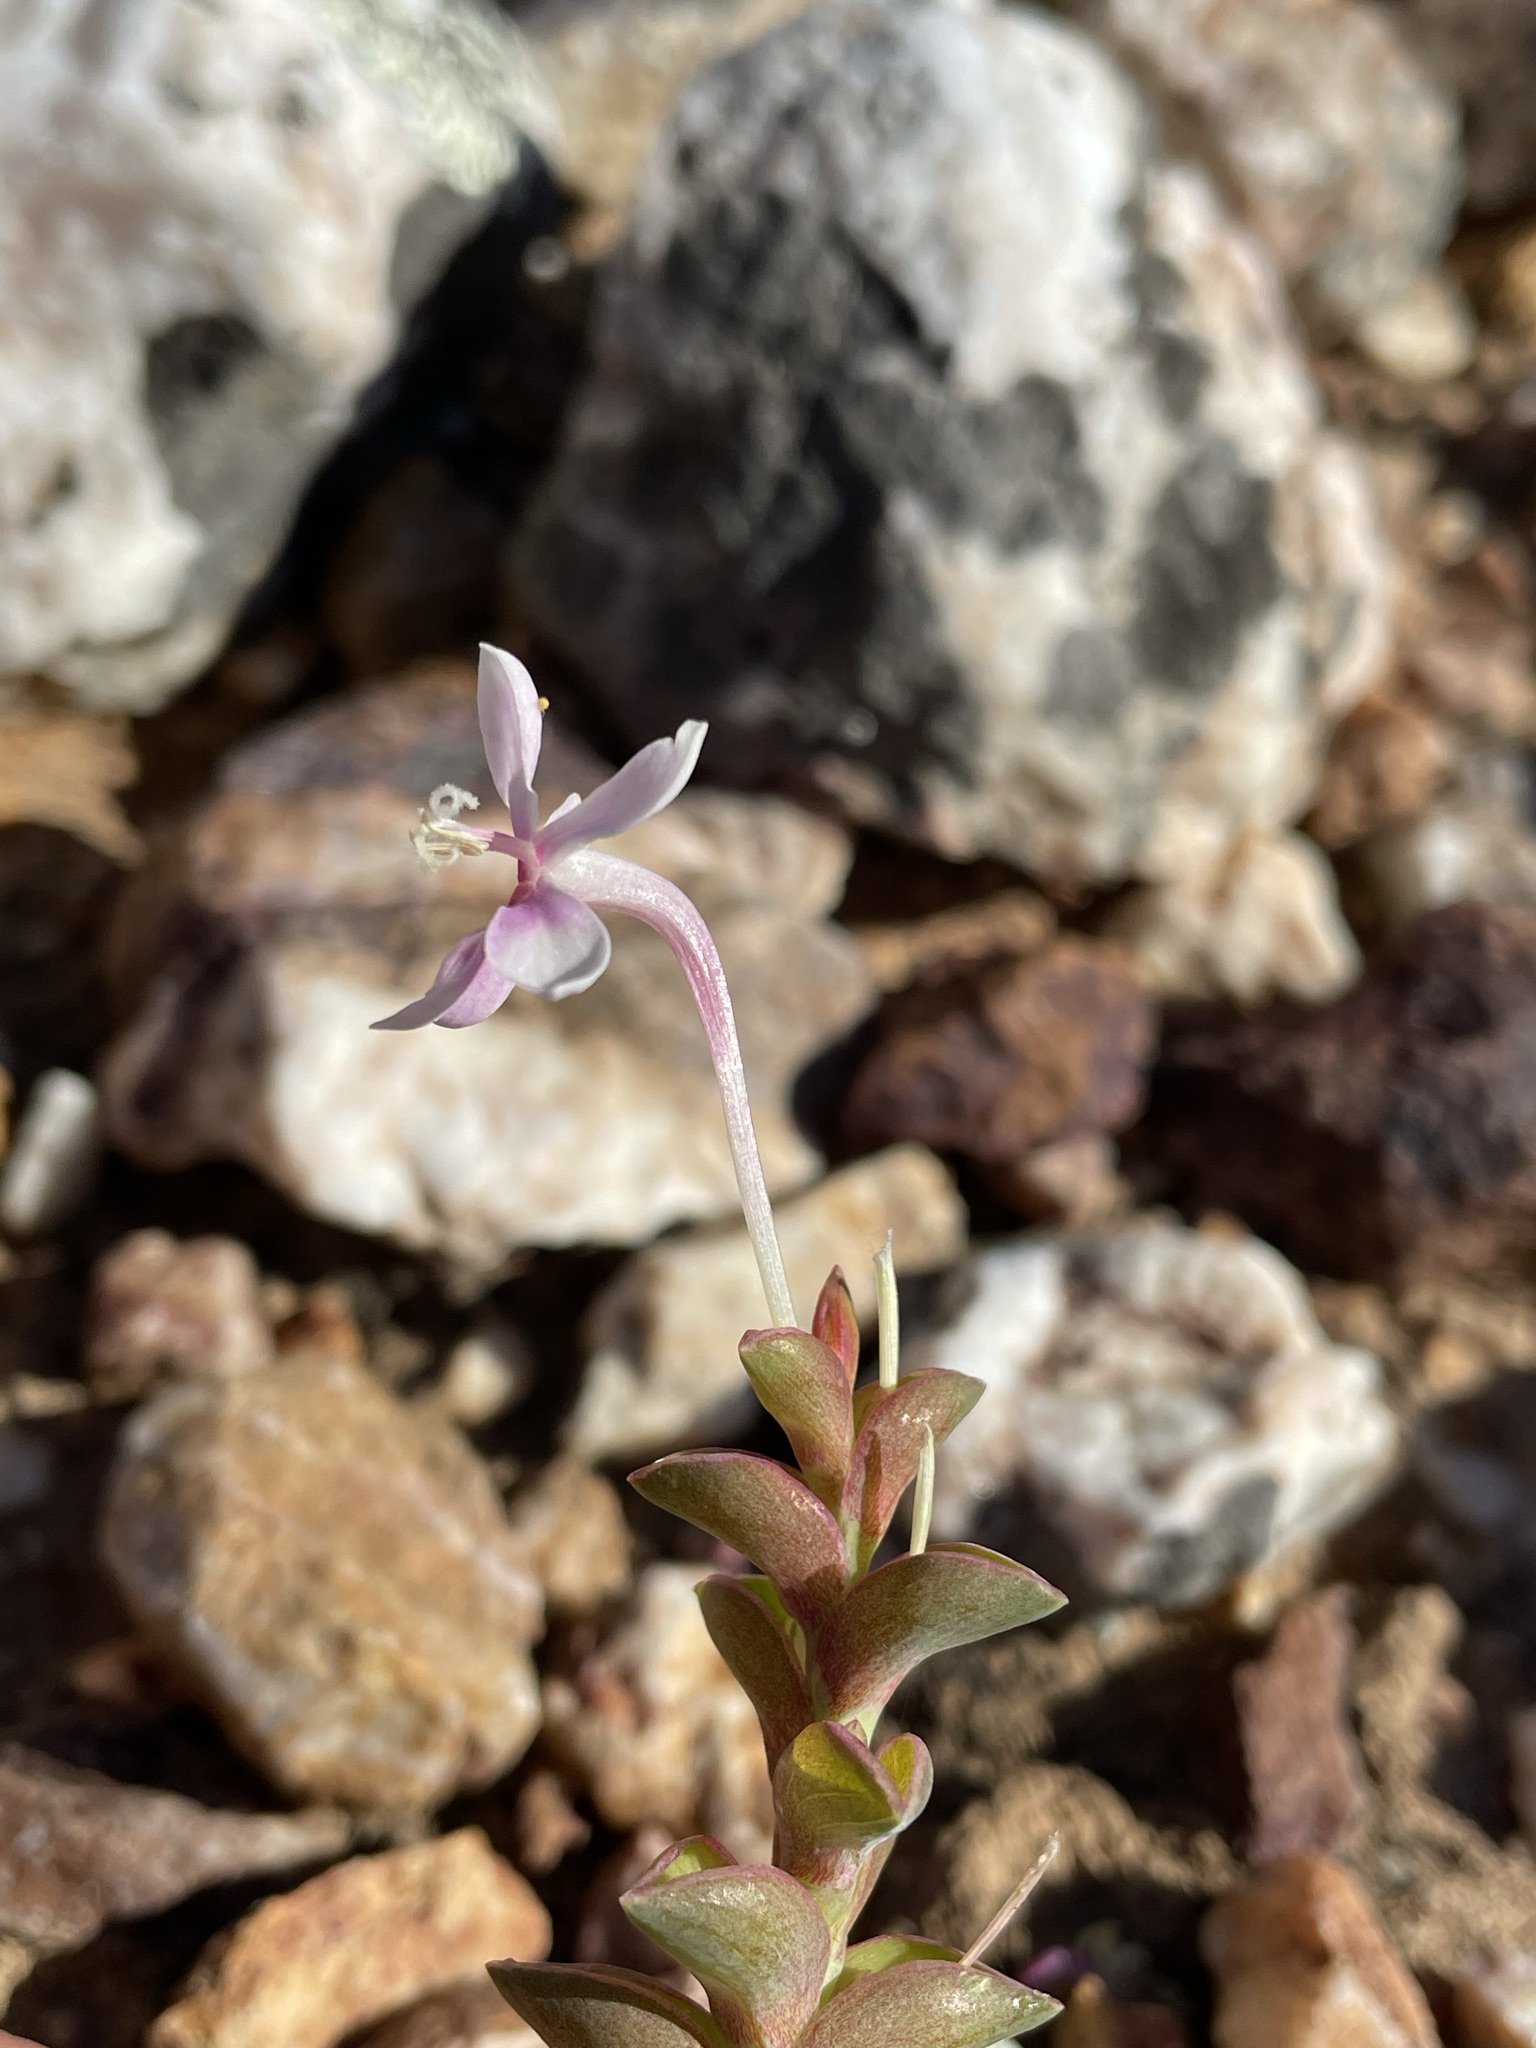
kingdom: Plantae
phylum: Tracheophyta
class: Liliopsida
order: Asparagales
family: Iridaceae
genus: Lapeirousia
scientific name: Lapeirousia pyramidalis
